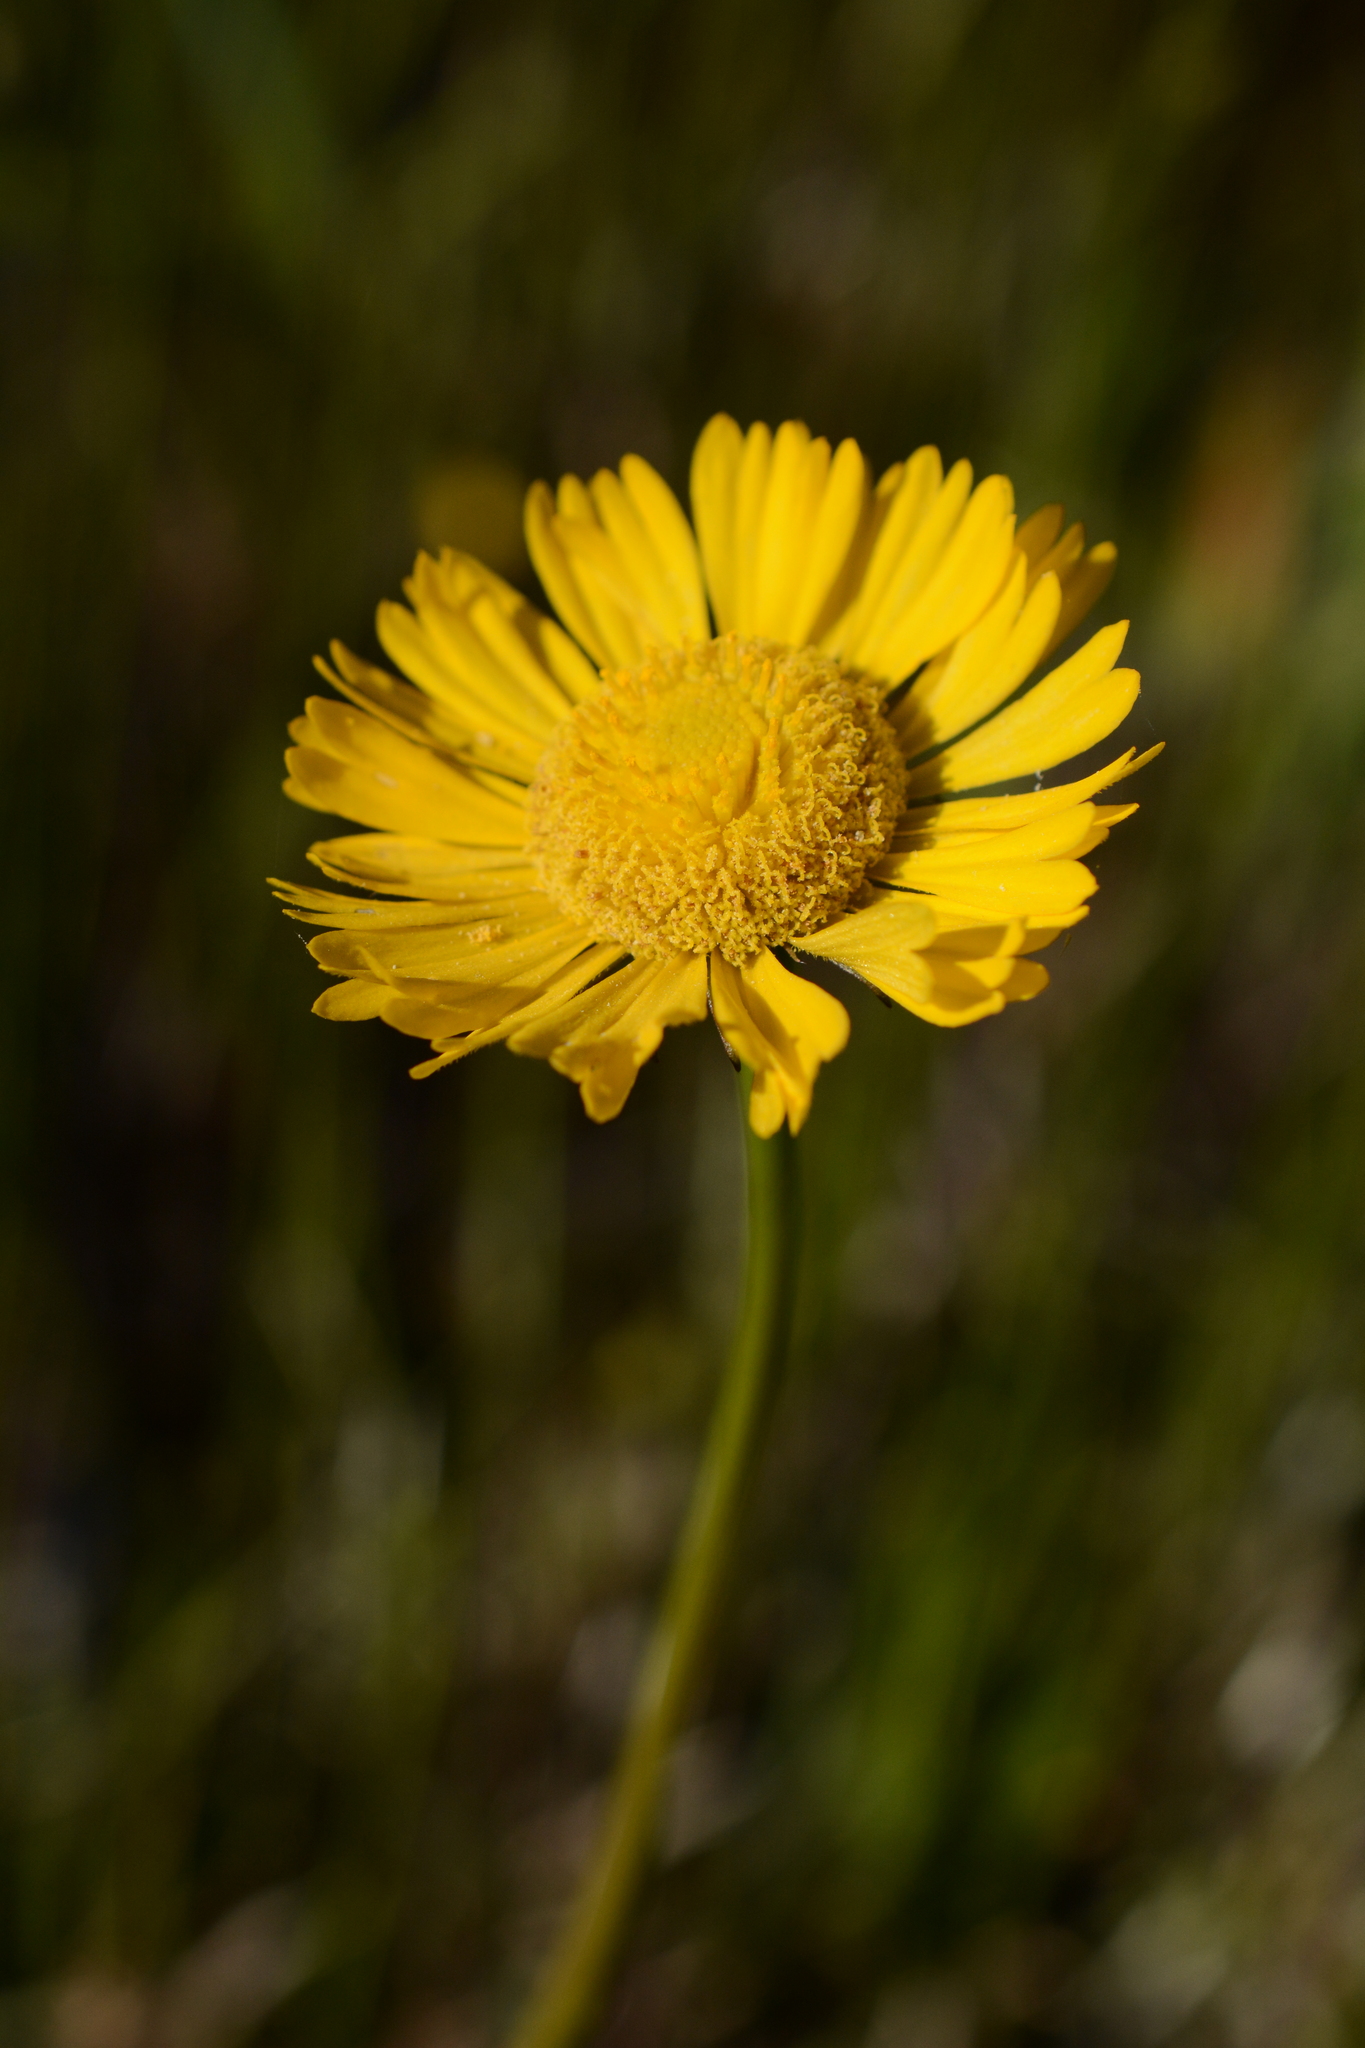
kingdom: Plantae
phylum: Tracheophyta
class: Magnoliopsida
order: Asterales
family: Asteraceae
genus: Helenium
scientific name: Helenium vernale
